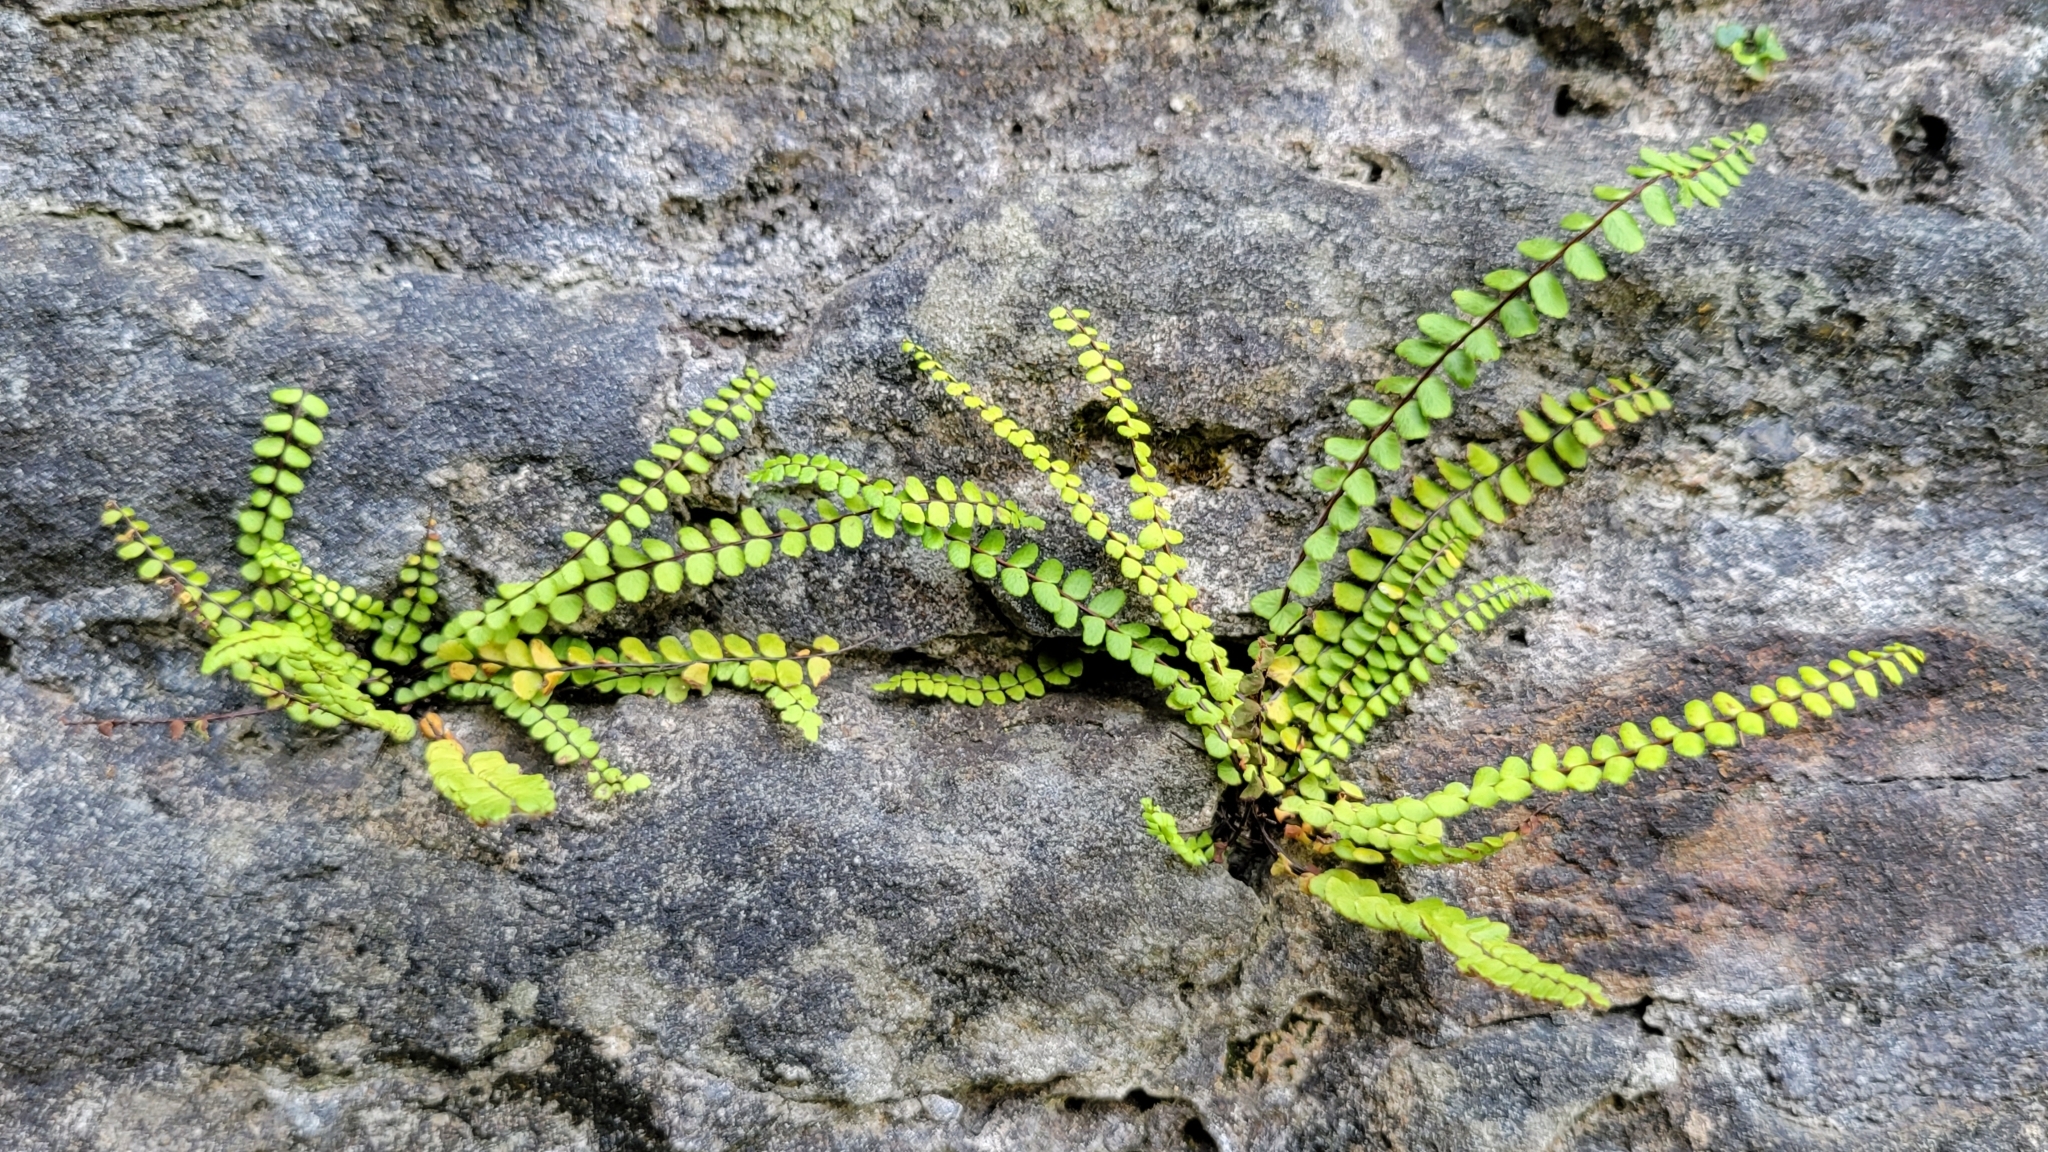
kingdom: Plantae
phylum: Tracheophyta
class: Polypodiopsida
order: Polypodiales
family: Aspleniaceae
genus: Asplenium
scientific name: Asplenium trichomanes
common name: Maidenhair spleenwort
